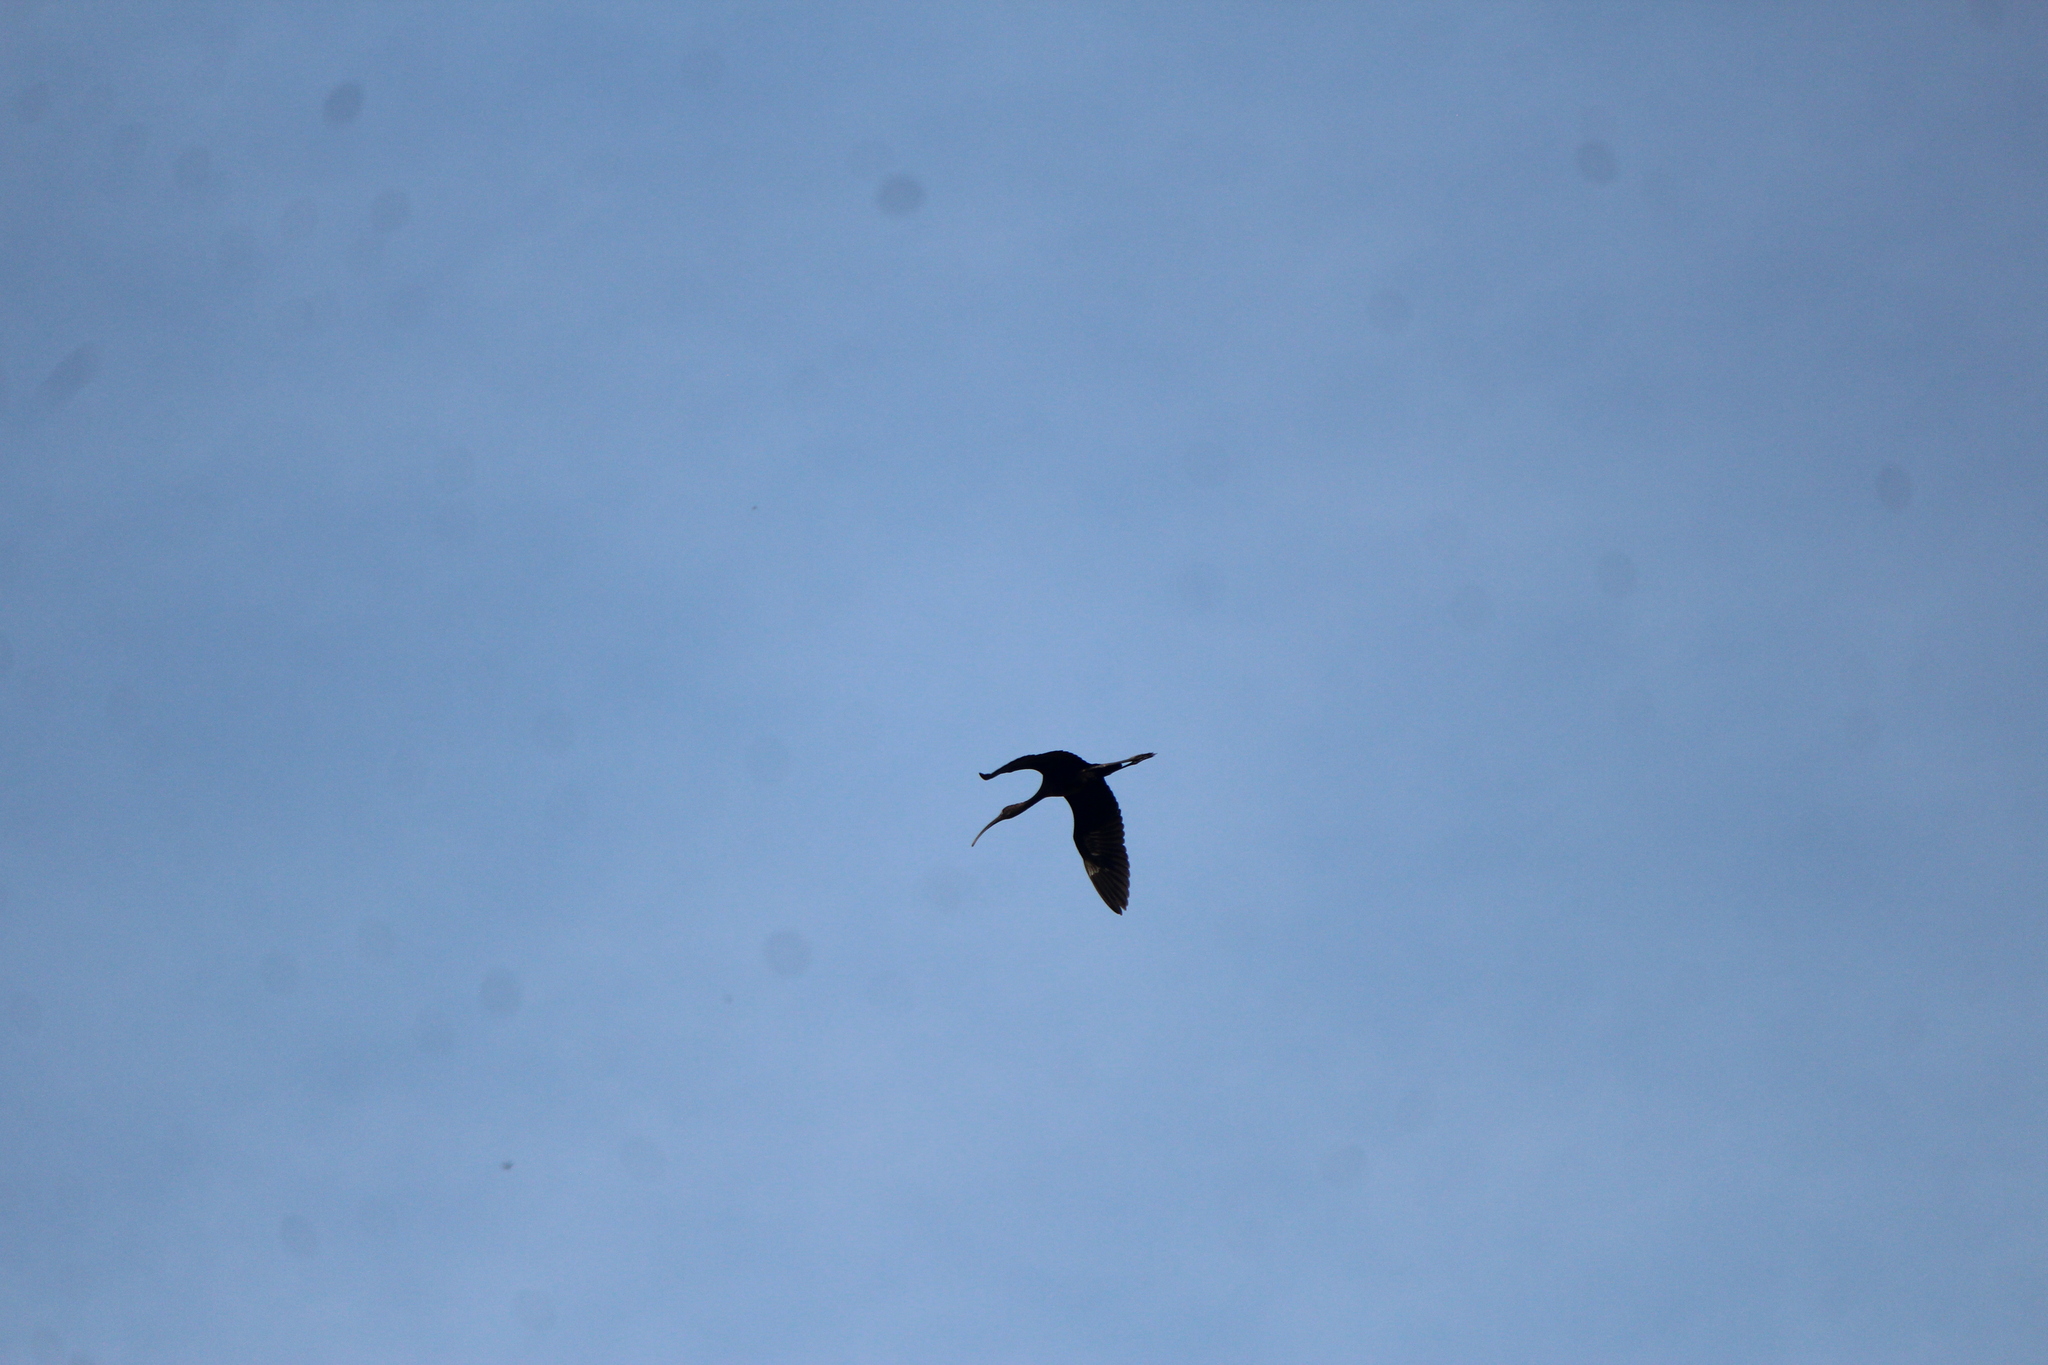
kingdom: Animalia
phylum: Chordata
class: Aves
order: Pelecaniformes
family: Threskiornithidae
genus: Plegadis
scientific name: Plegadis chihi
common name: White-faced ibis
